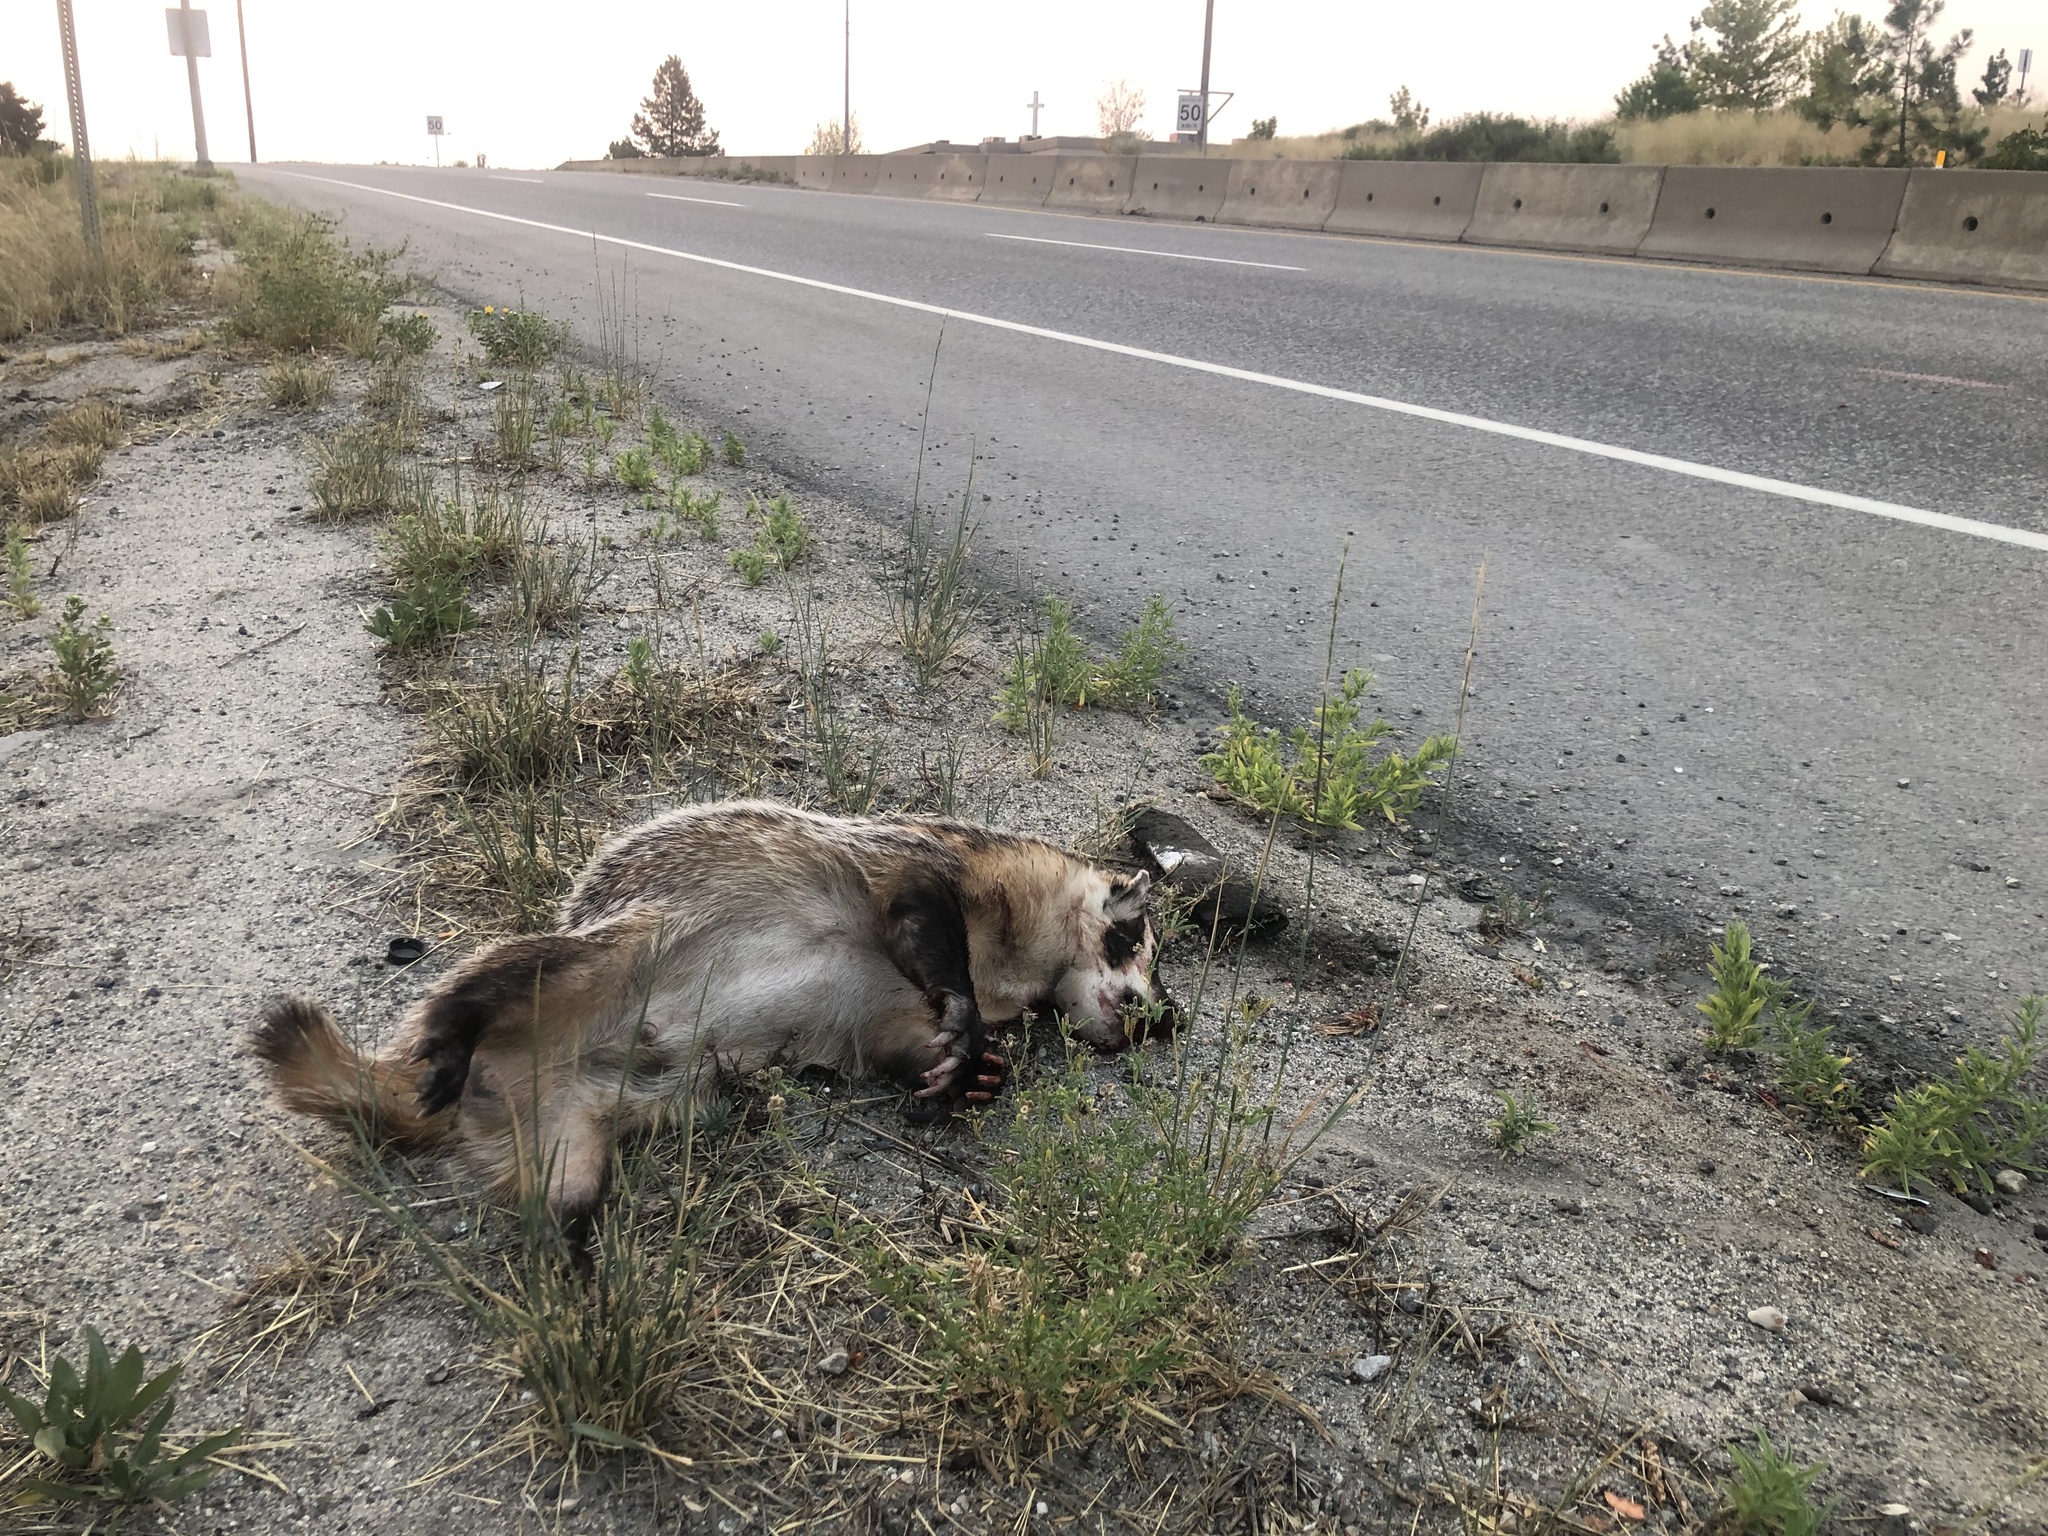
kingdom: Animalia
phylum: Chordata
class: Mammalia
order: Carnivora
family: Mustelidae
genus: Taxidea
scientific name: Taxidea taxus
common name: American badger
